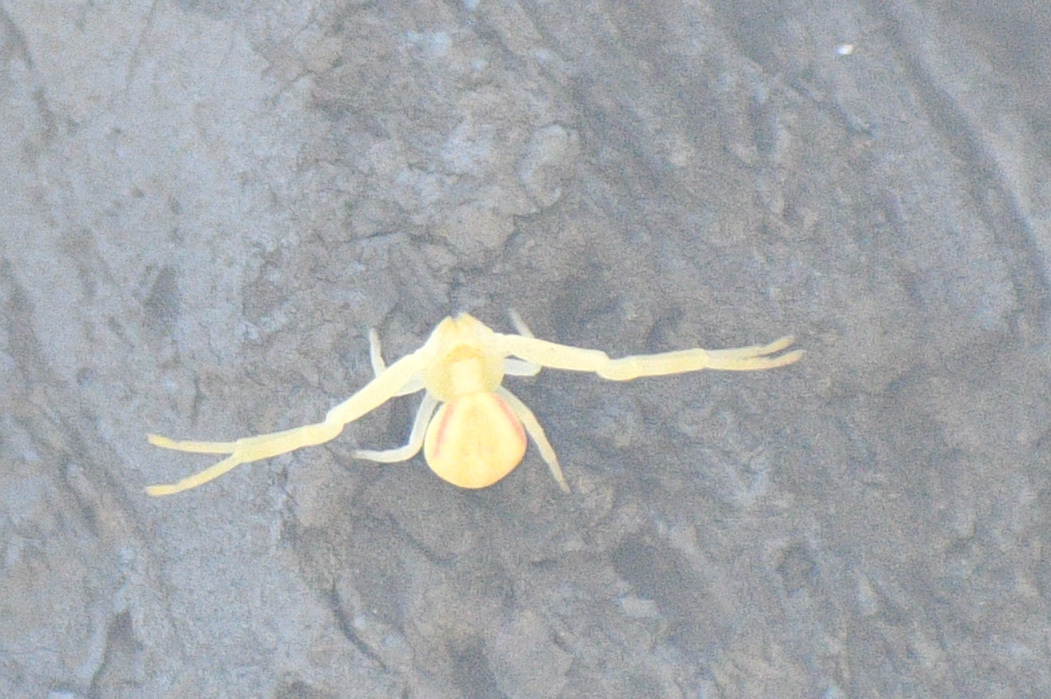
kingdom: Animalia
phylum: Arthropoda
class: Arachnida
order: Araneae
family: Thomisidae
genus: Misumena
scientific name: Misumena vatia
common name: Goldenrod crab spider
